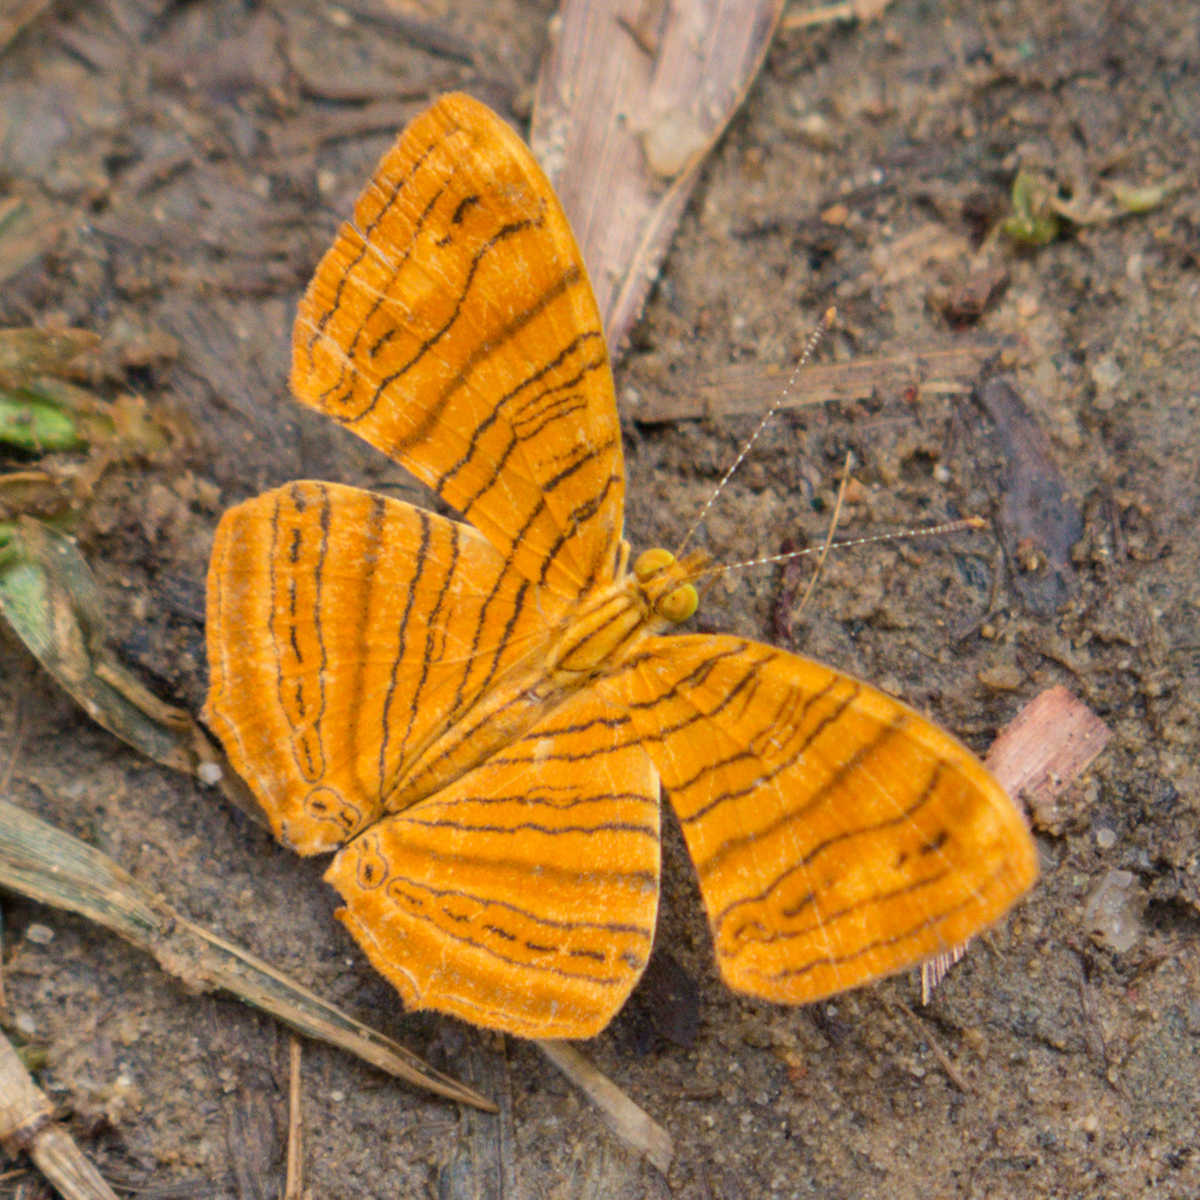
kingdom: Animalia
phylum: Arthropoda
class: Insecta
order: Lepidoptera
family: Nymphalidae
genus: Chersonesia
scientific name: Chersonesia intermedia
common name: Intermediate maplet
